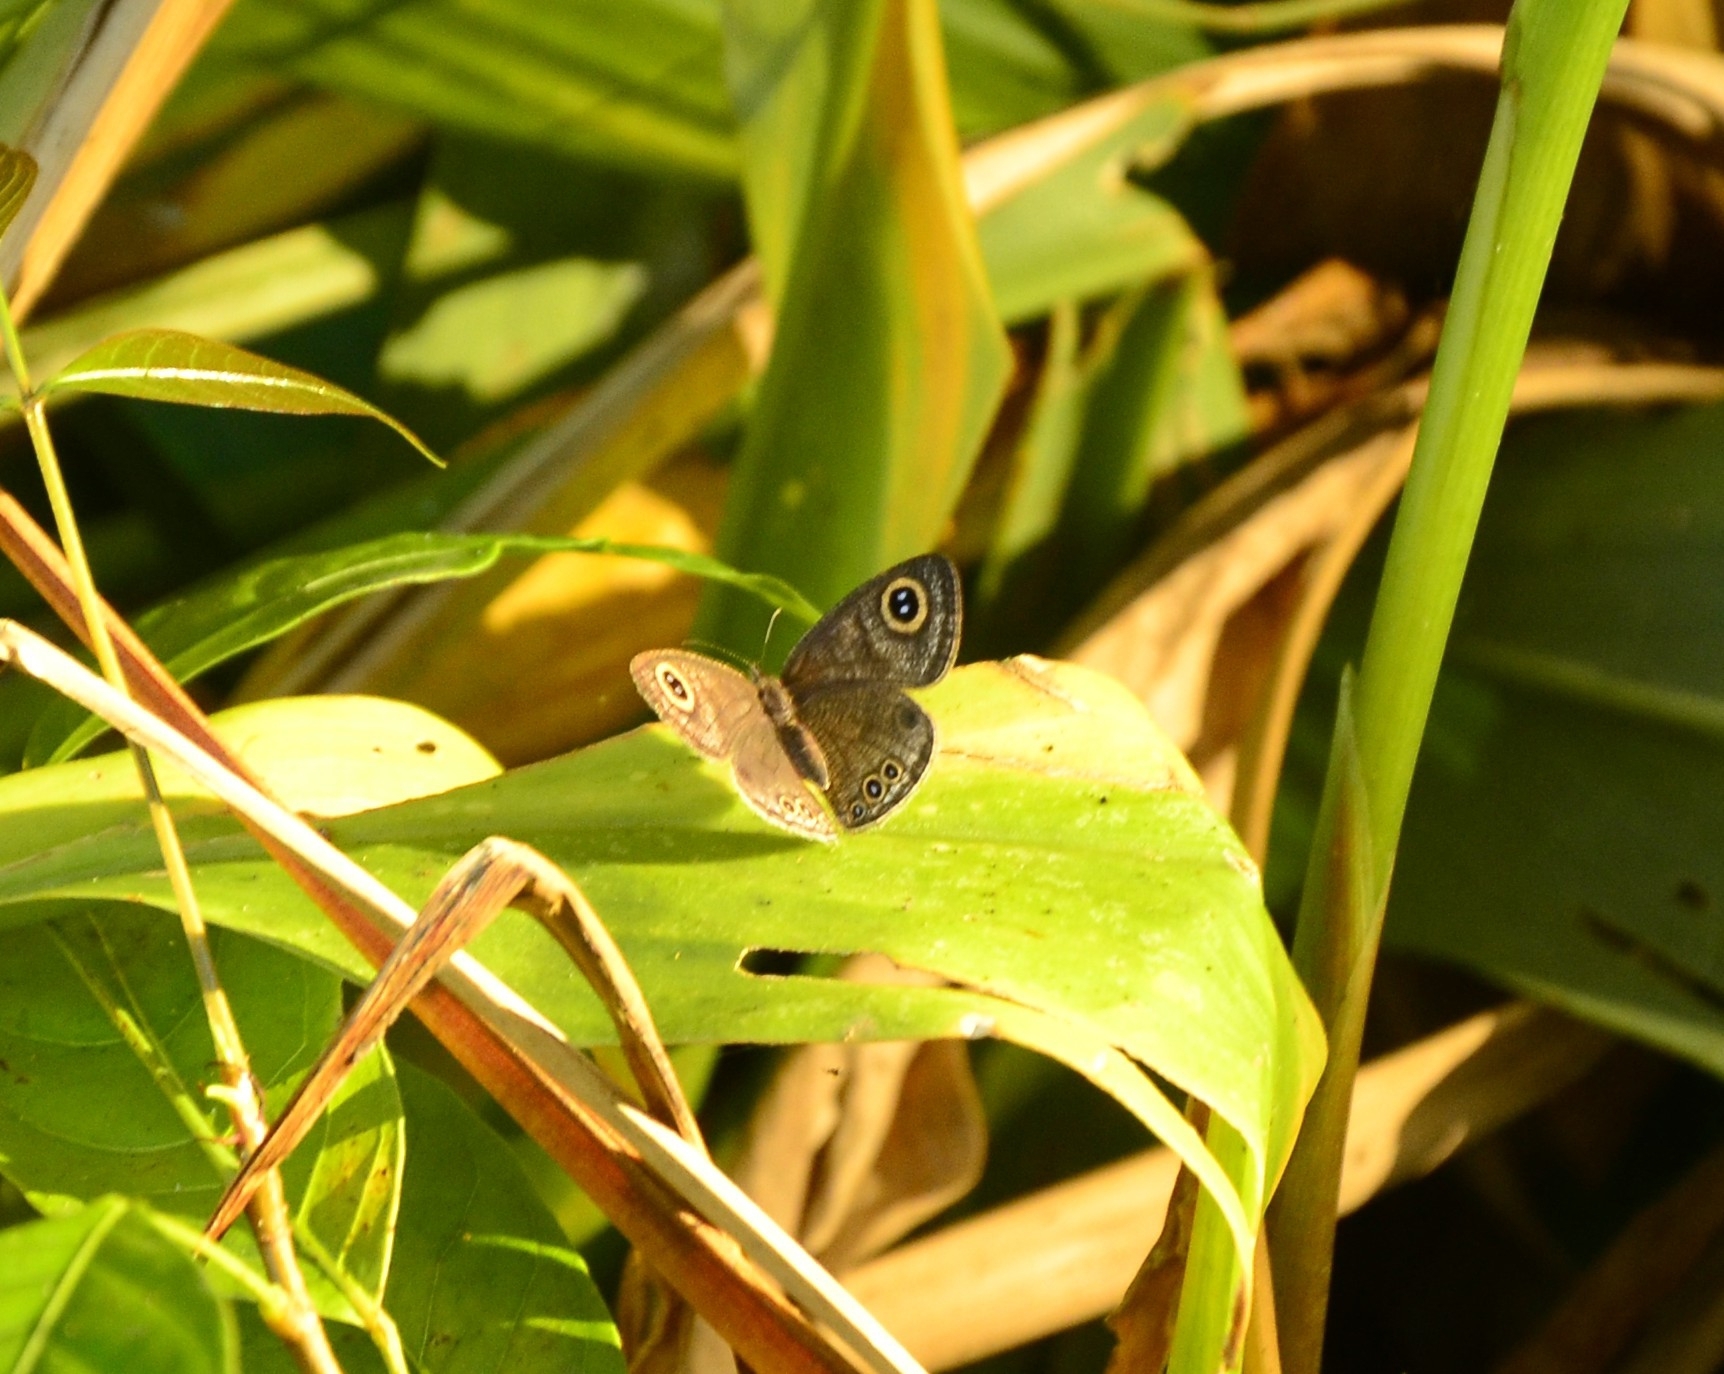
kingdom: Animalia
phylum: Arthropoda
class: Insecta
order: Lepidoptera
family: Nymphalidae
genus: Ypthima
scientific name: Ypthima huebneri
